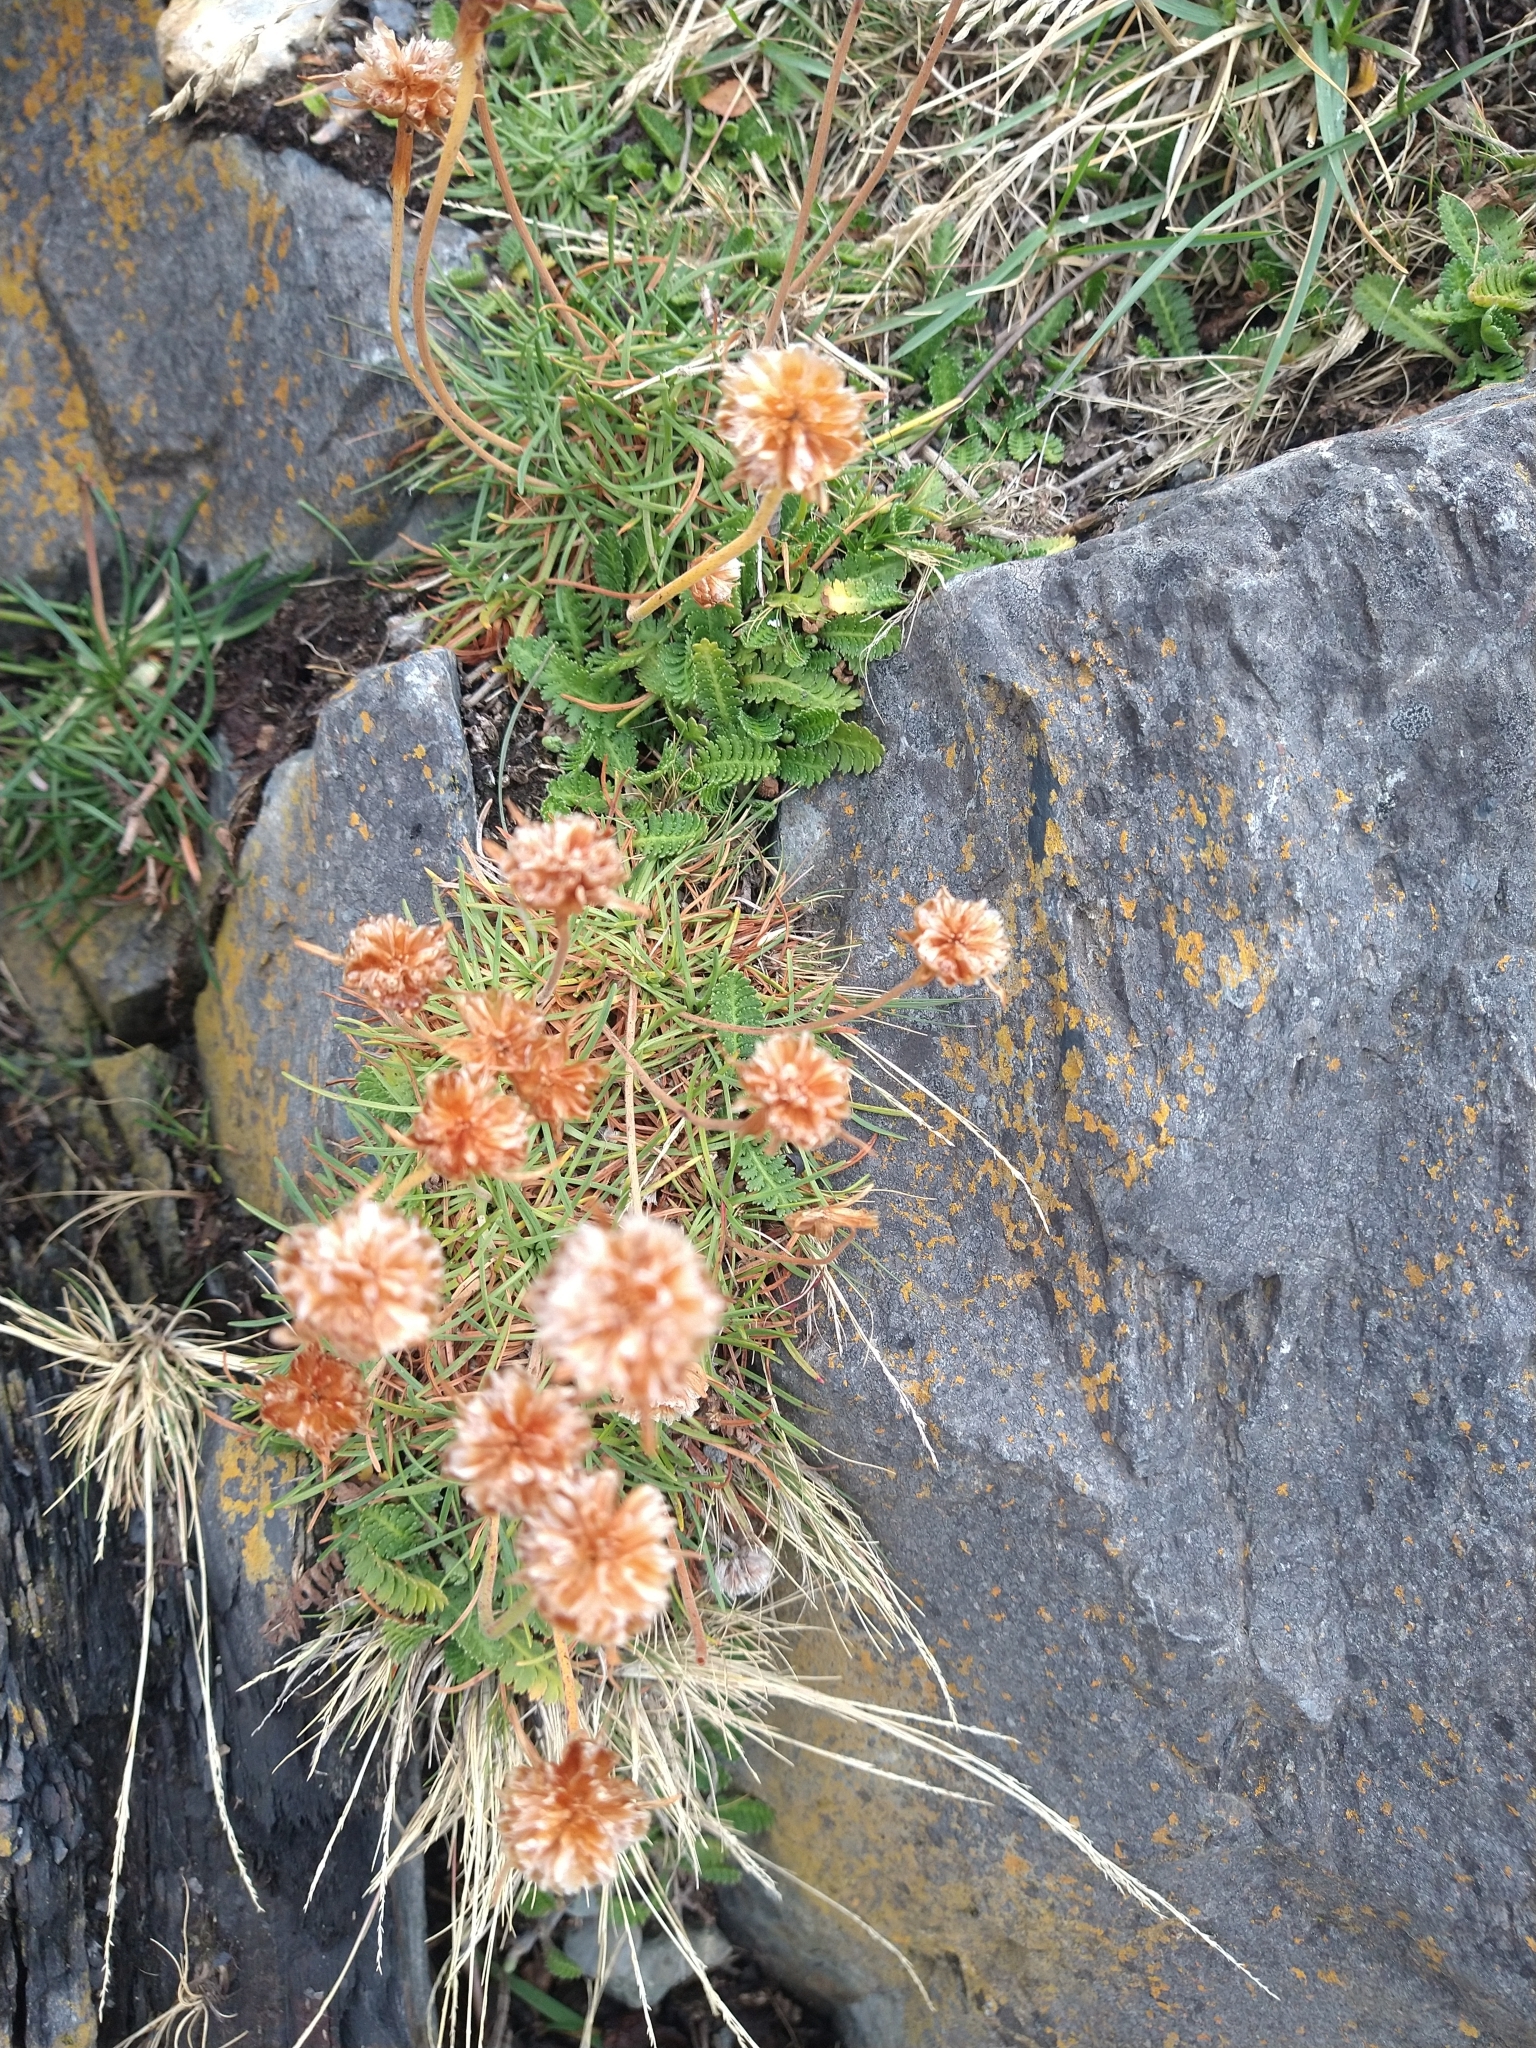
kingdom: Plantae
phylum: Tracheophyta
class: Magnoliopsida
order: Caryophyllales
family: Plumbaginaceae
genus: Armeria
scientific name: Armeria curvifolia
